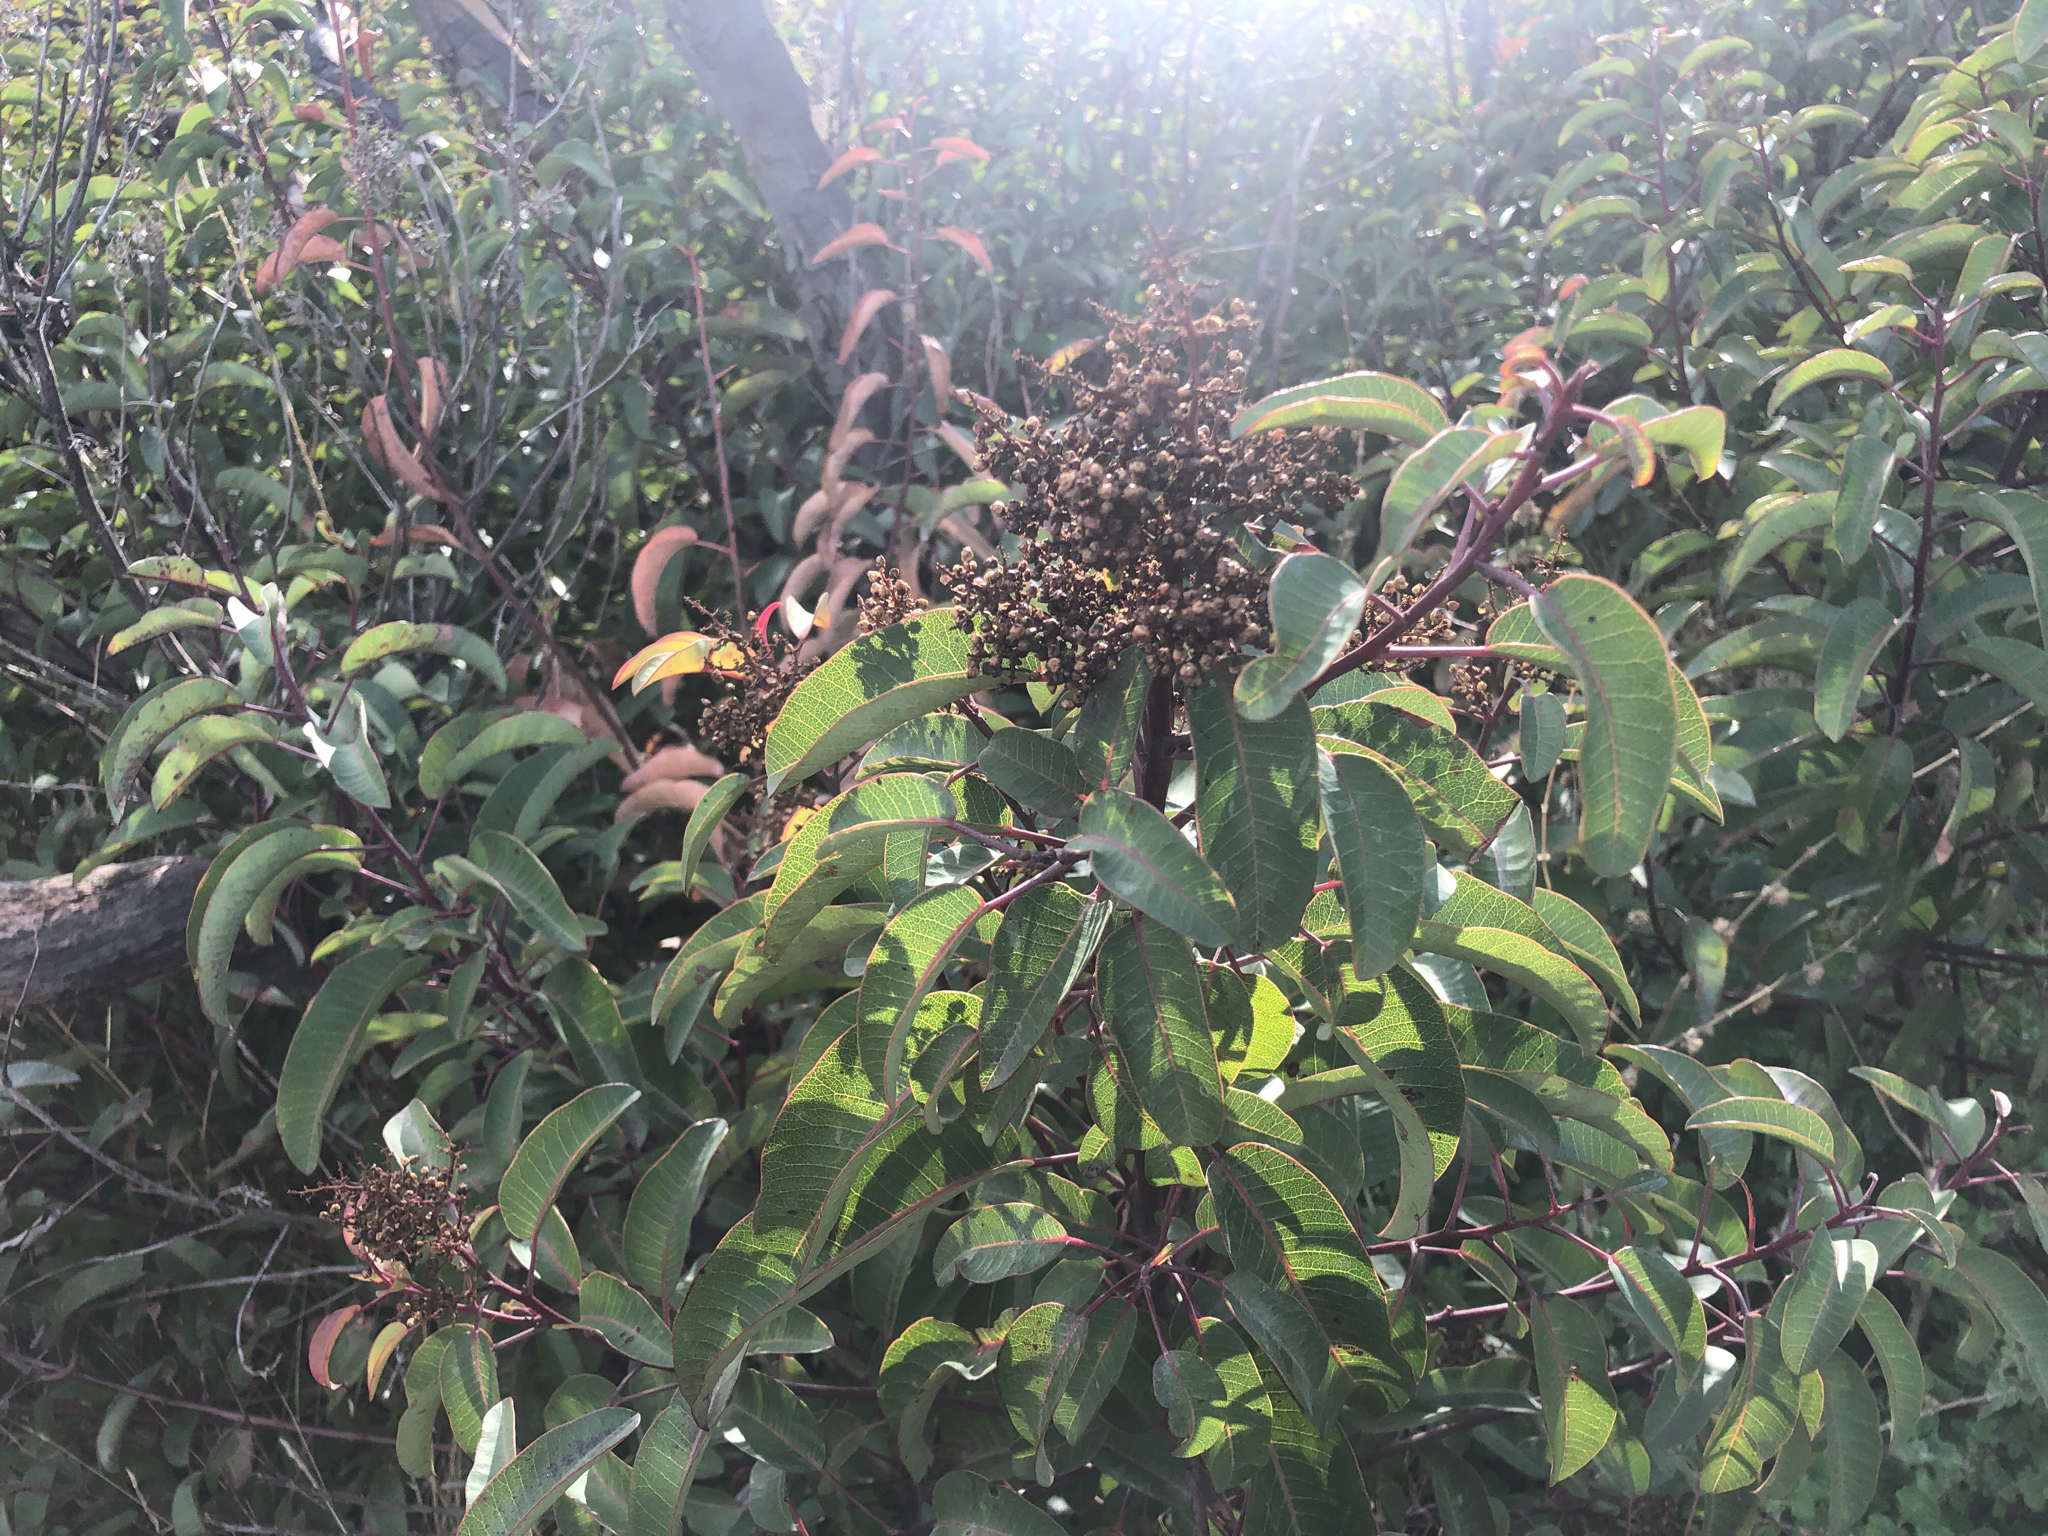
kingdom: Plantae
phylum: Tracheophyta
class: Magnoliopsida
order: Sapindales
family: Anacardiaceae
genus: Malosma
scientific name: Malosma laurina
